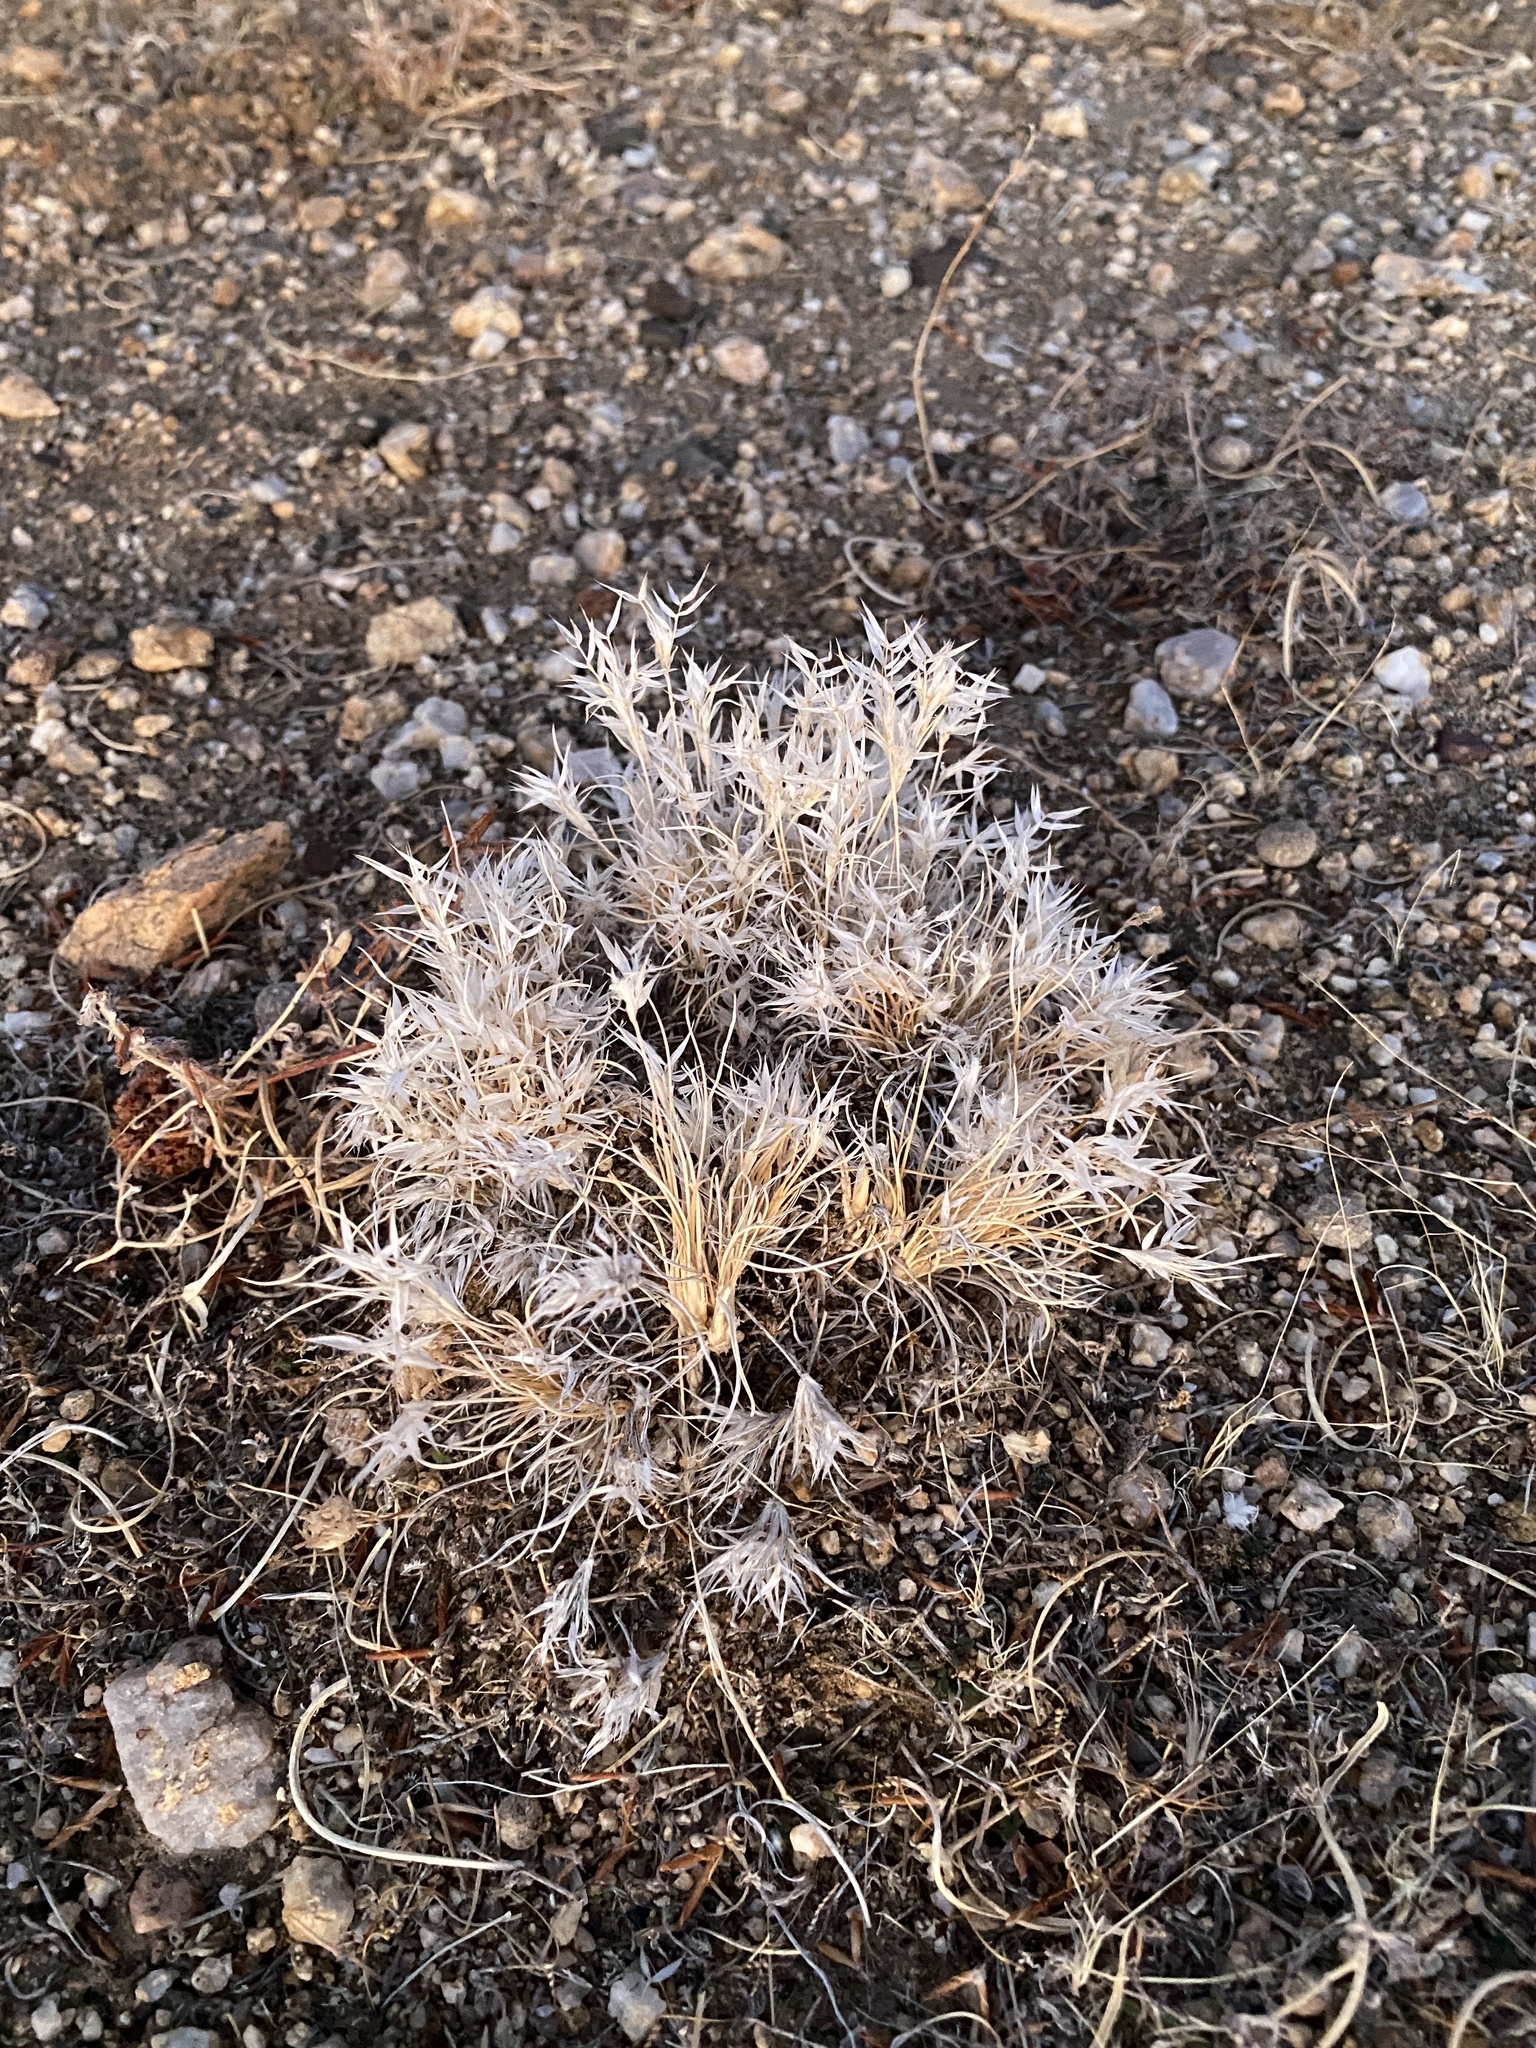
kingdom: Plantae
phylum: Tracheophyta
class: Liliopsida
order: Poales
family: Poaceae
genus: Dasyochloa
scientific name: Dasyochloa pulchella
